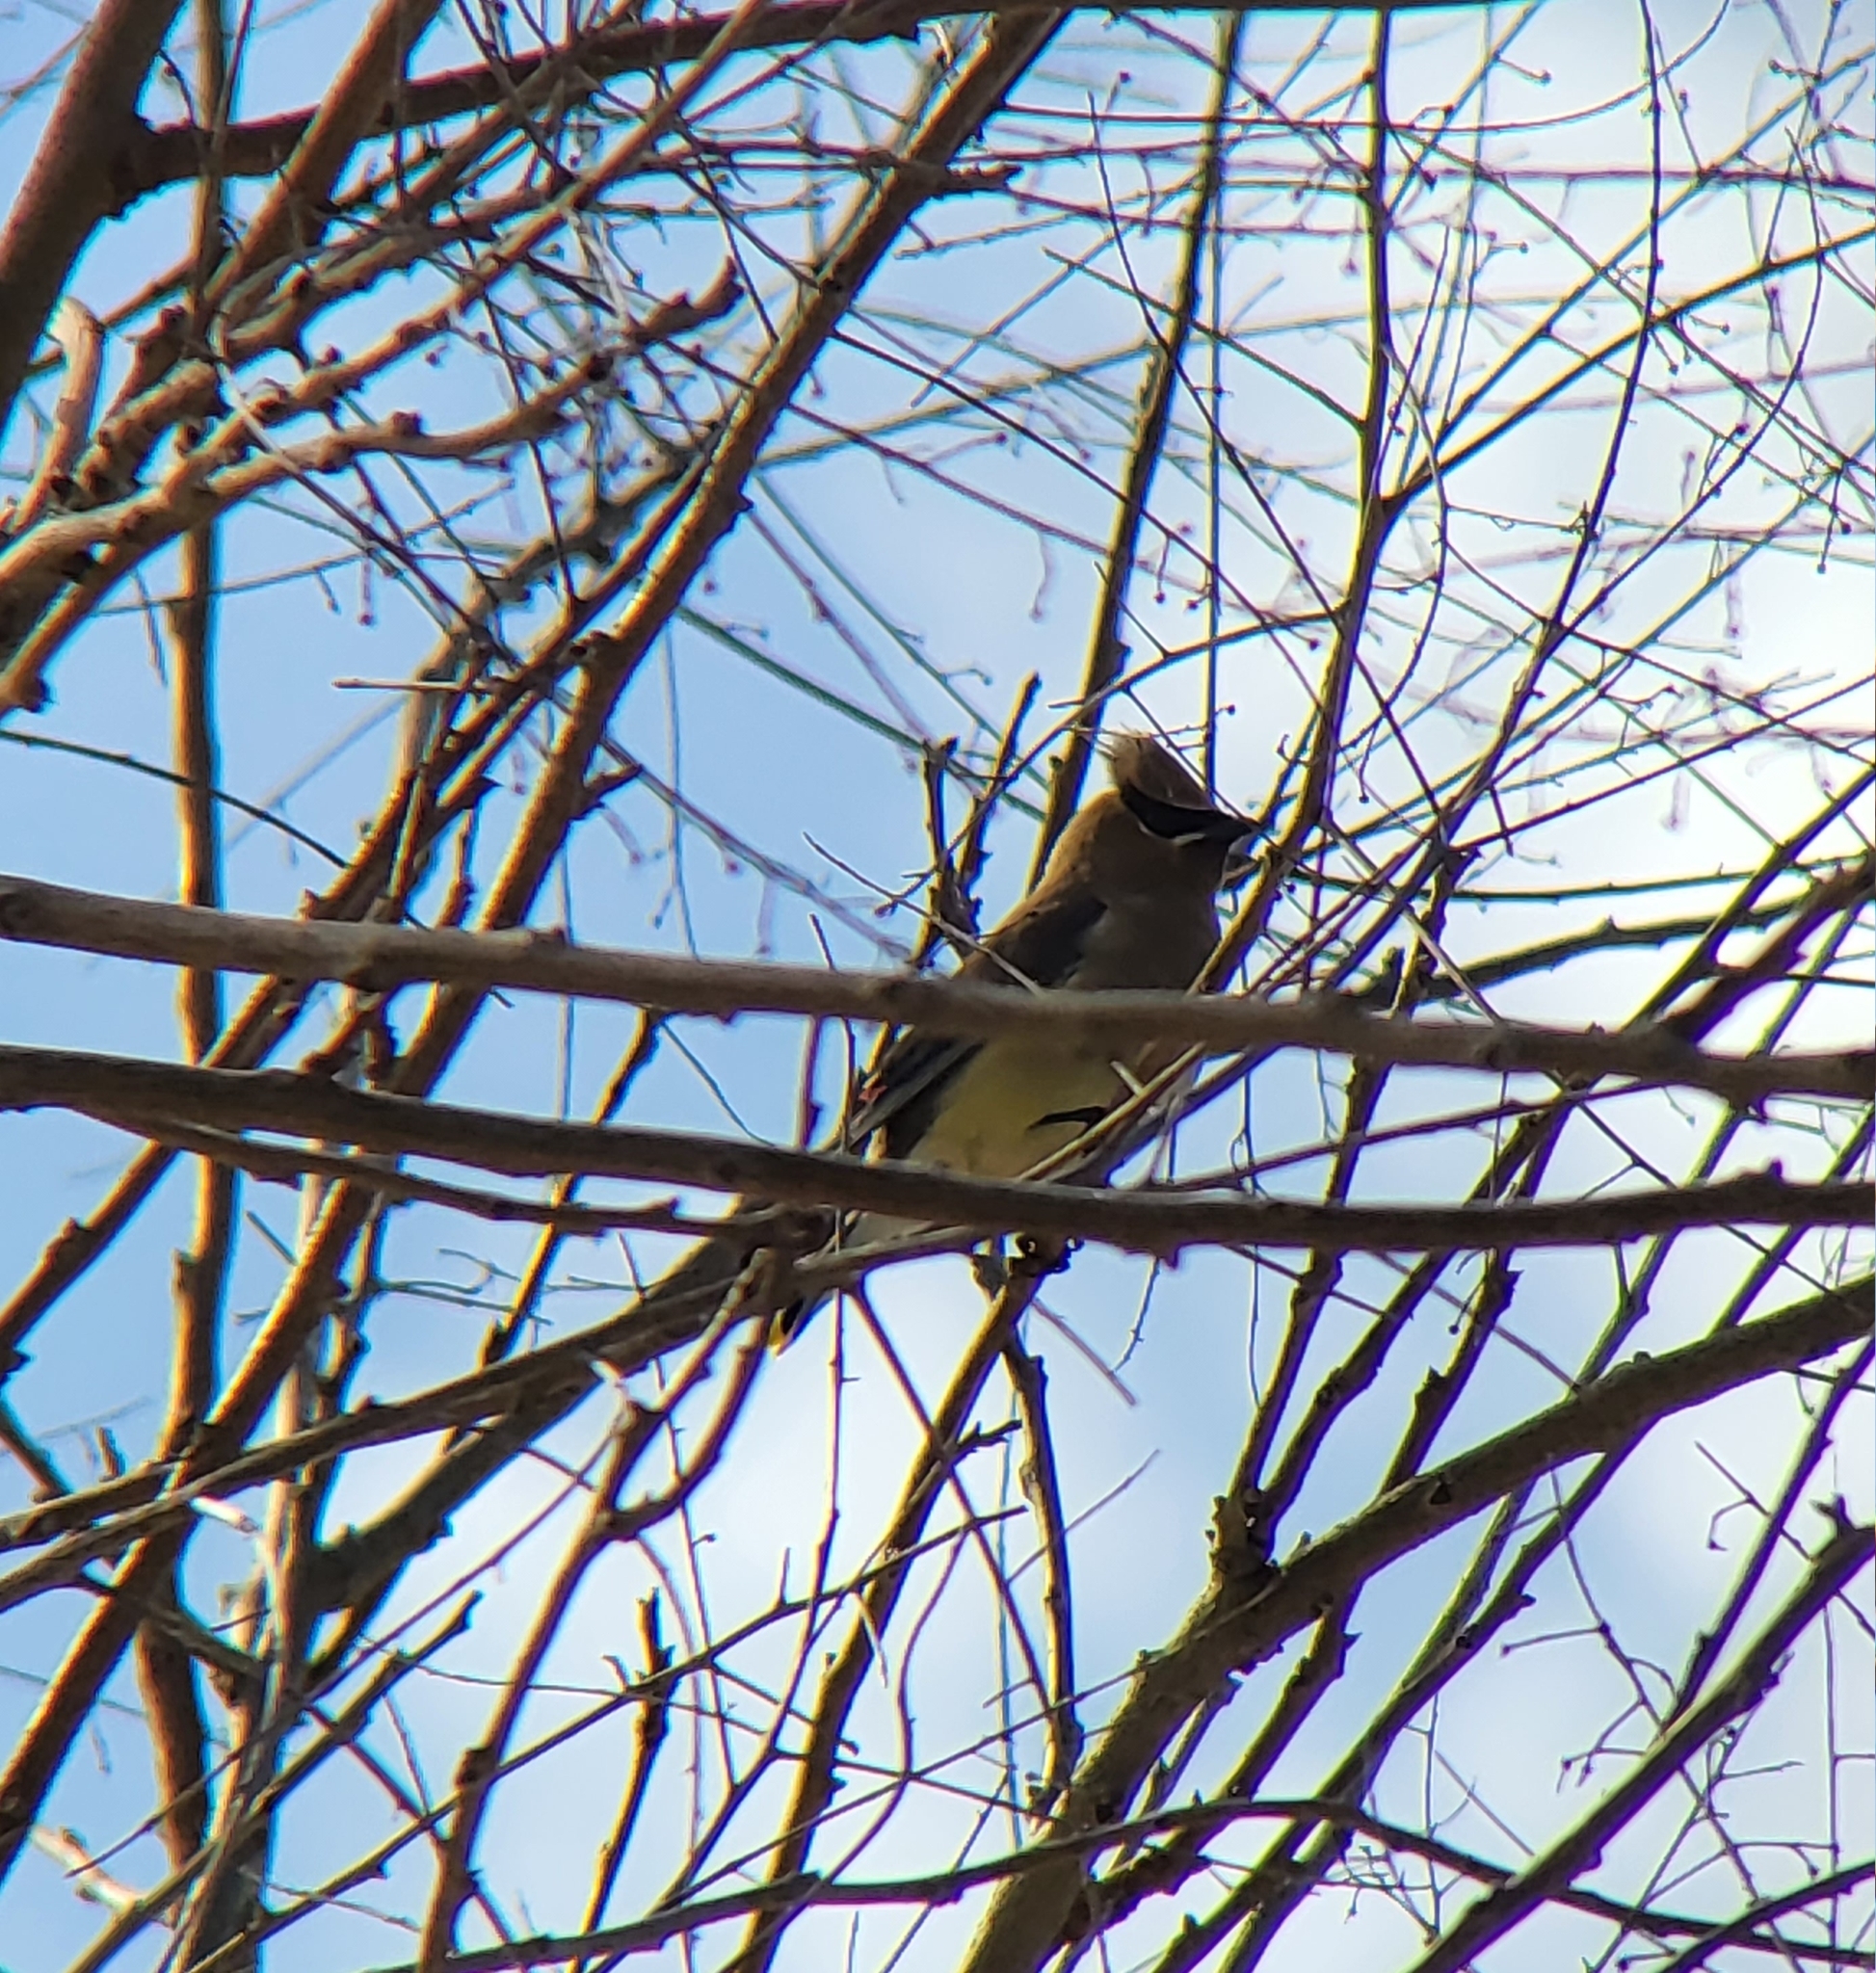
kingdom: Animalia
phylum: Chordata
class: Aves
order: Passeriformes
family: Bombycillidae
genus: Bombycilla
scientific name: Bombycilla cedrorum
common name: Cedar waxwing
